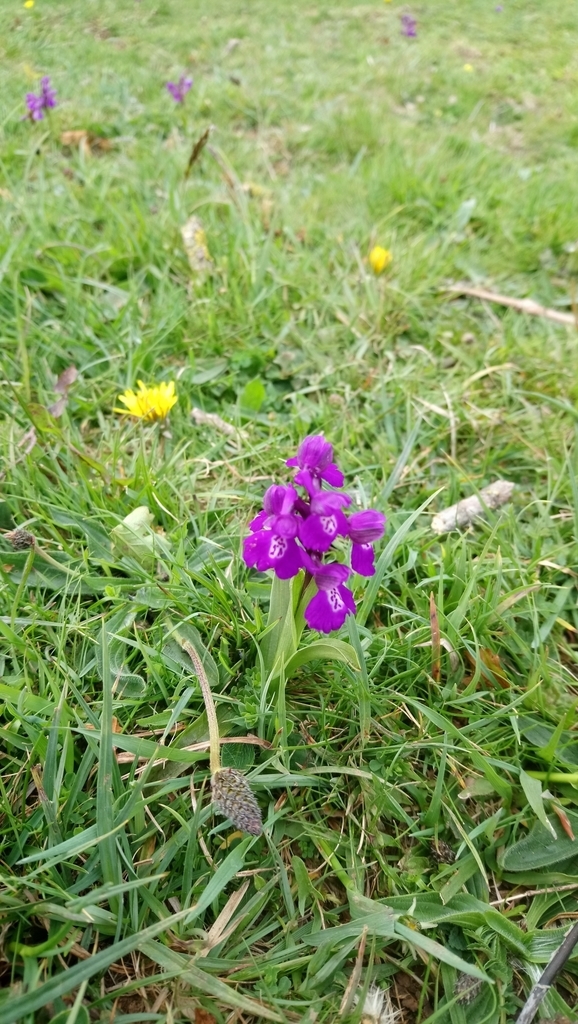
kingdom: Plantae
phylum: Tracheophyta
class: Liliopsida
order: Asparagales
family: Orchidaceae
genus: Anacamptis
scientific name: Anacamptis morio
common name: Green-winged orchid
